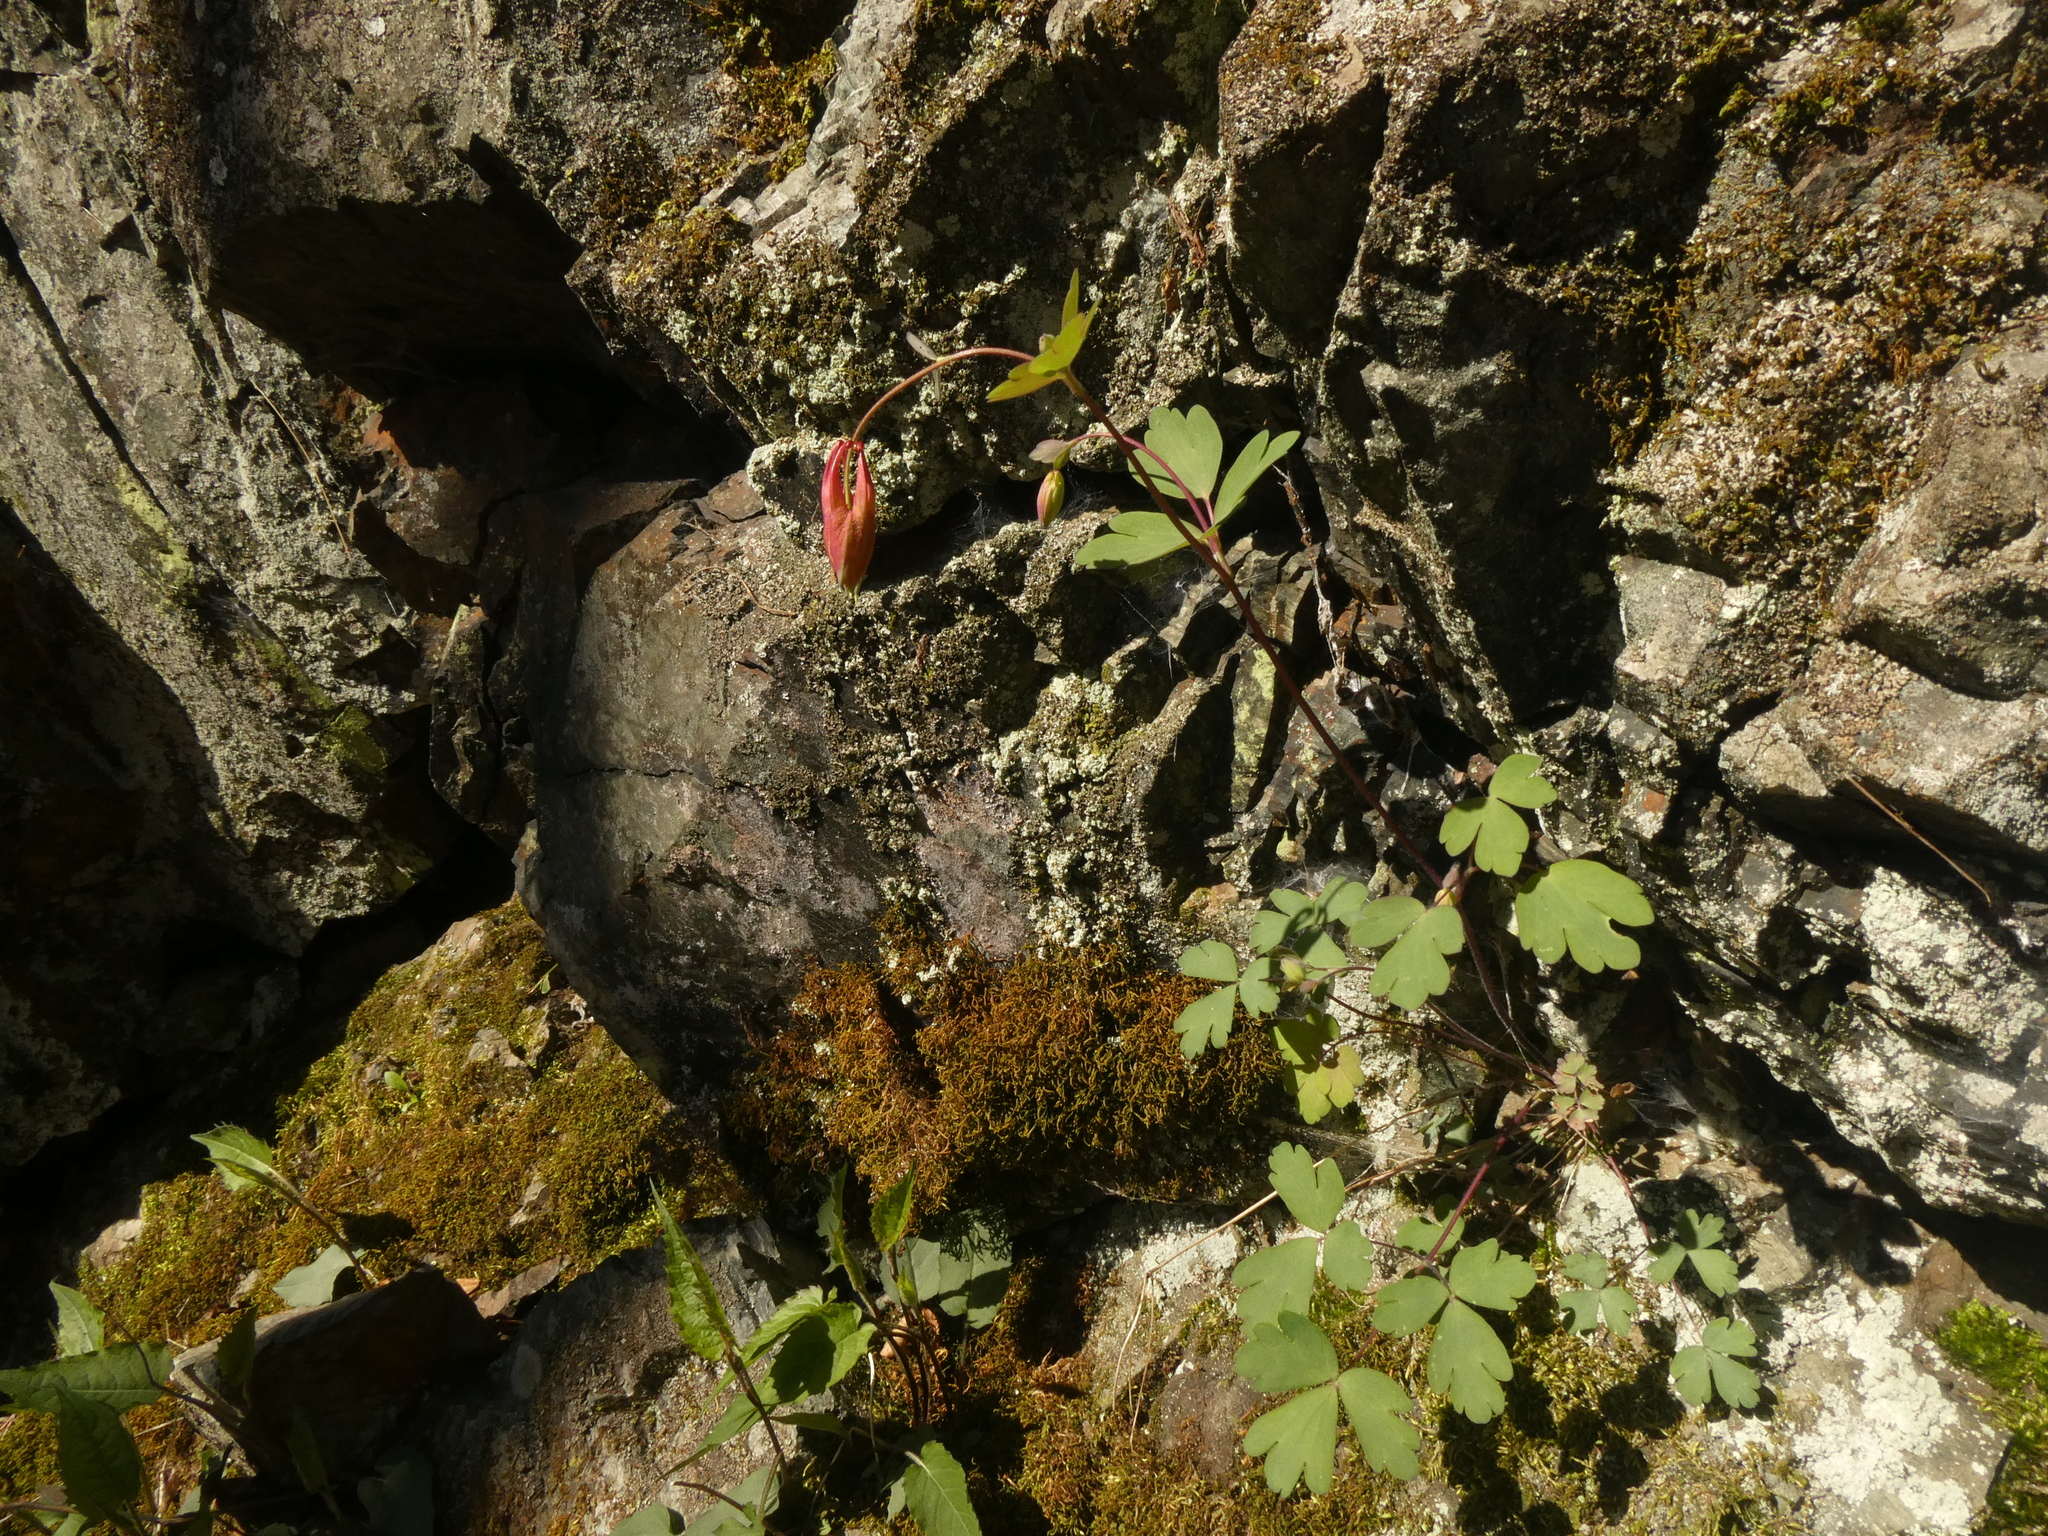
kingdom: Plantae
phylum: Tracheophyta
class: Magnoliopsida
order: Ranunculales
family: Ranunculaceae
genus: Aquilegia
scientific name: Aquilegia canadensis
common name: American columbine
